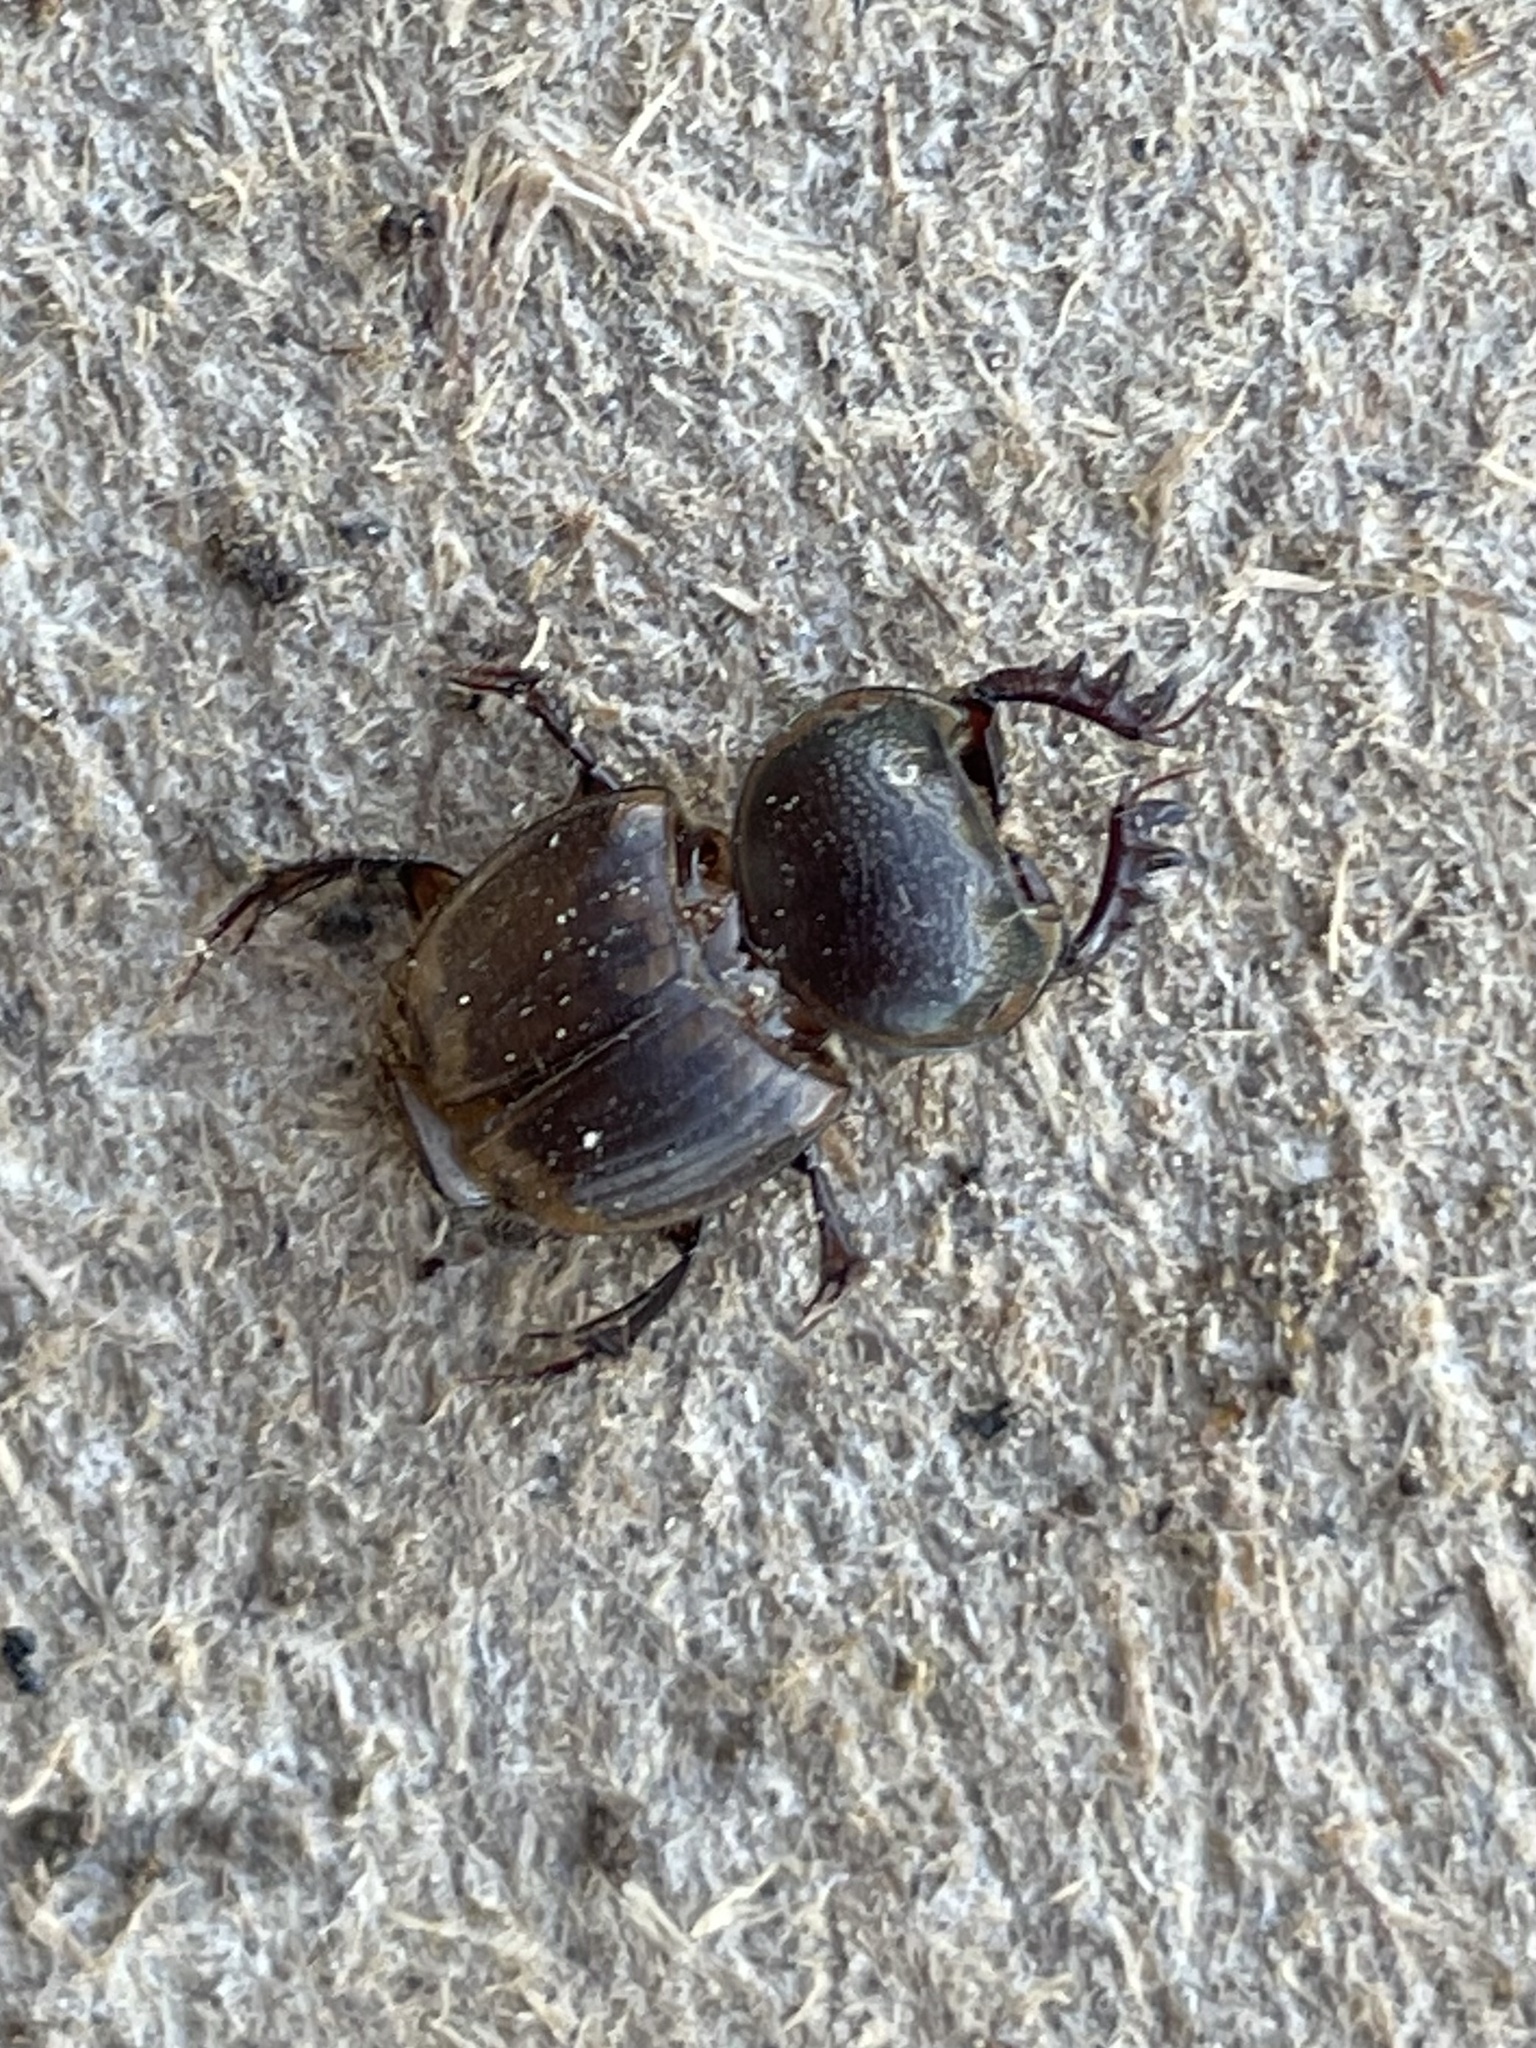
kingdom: Animalia
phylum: Arthropoda
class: Insecta
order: Coleoptera
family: Scarabaeidae
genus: Digitonthophagus
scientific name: Digitonthophagus gazella
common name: Brown dung beetle
